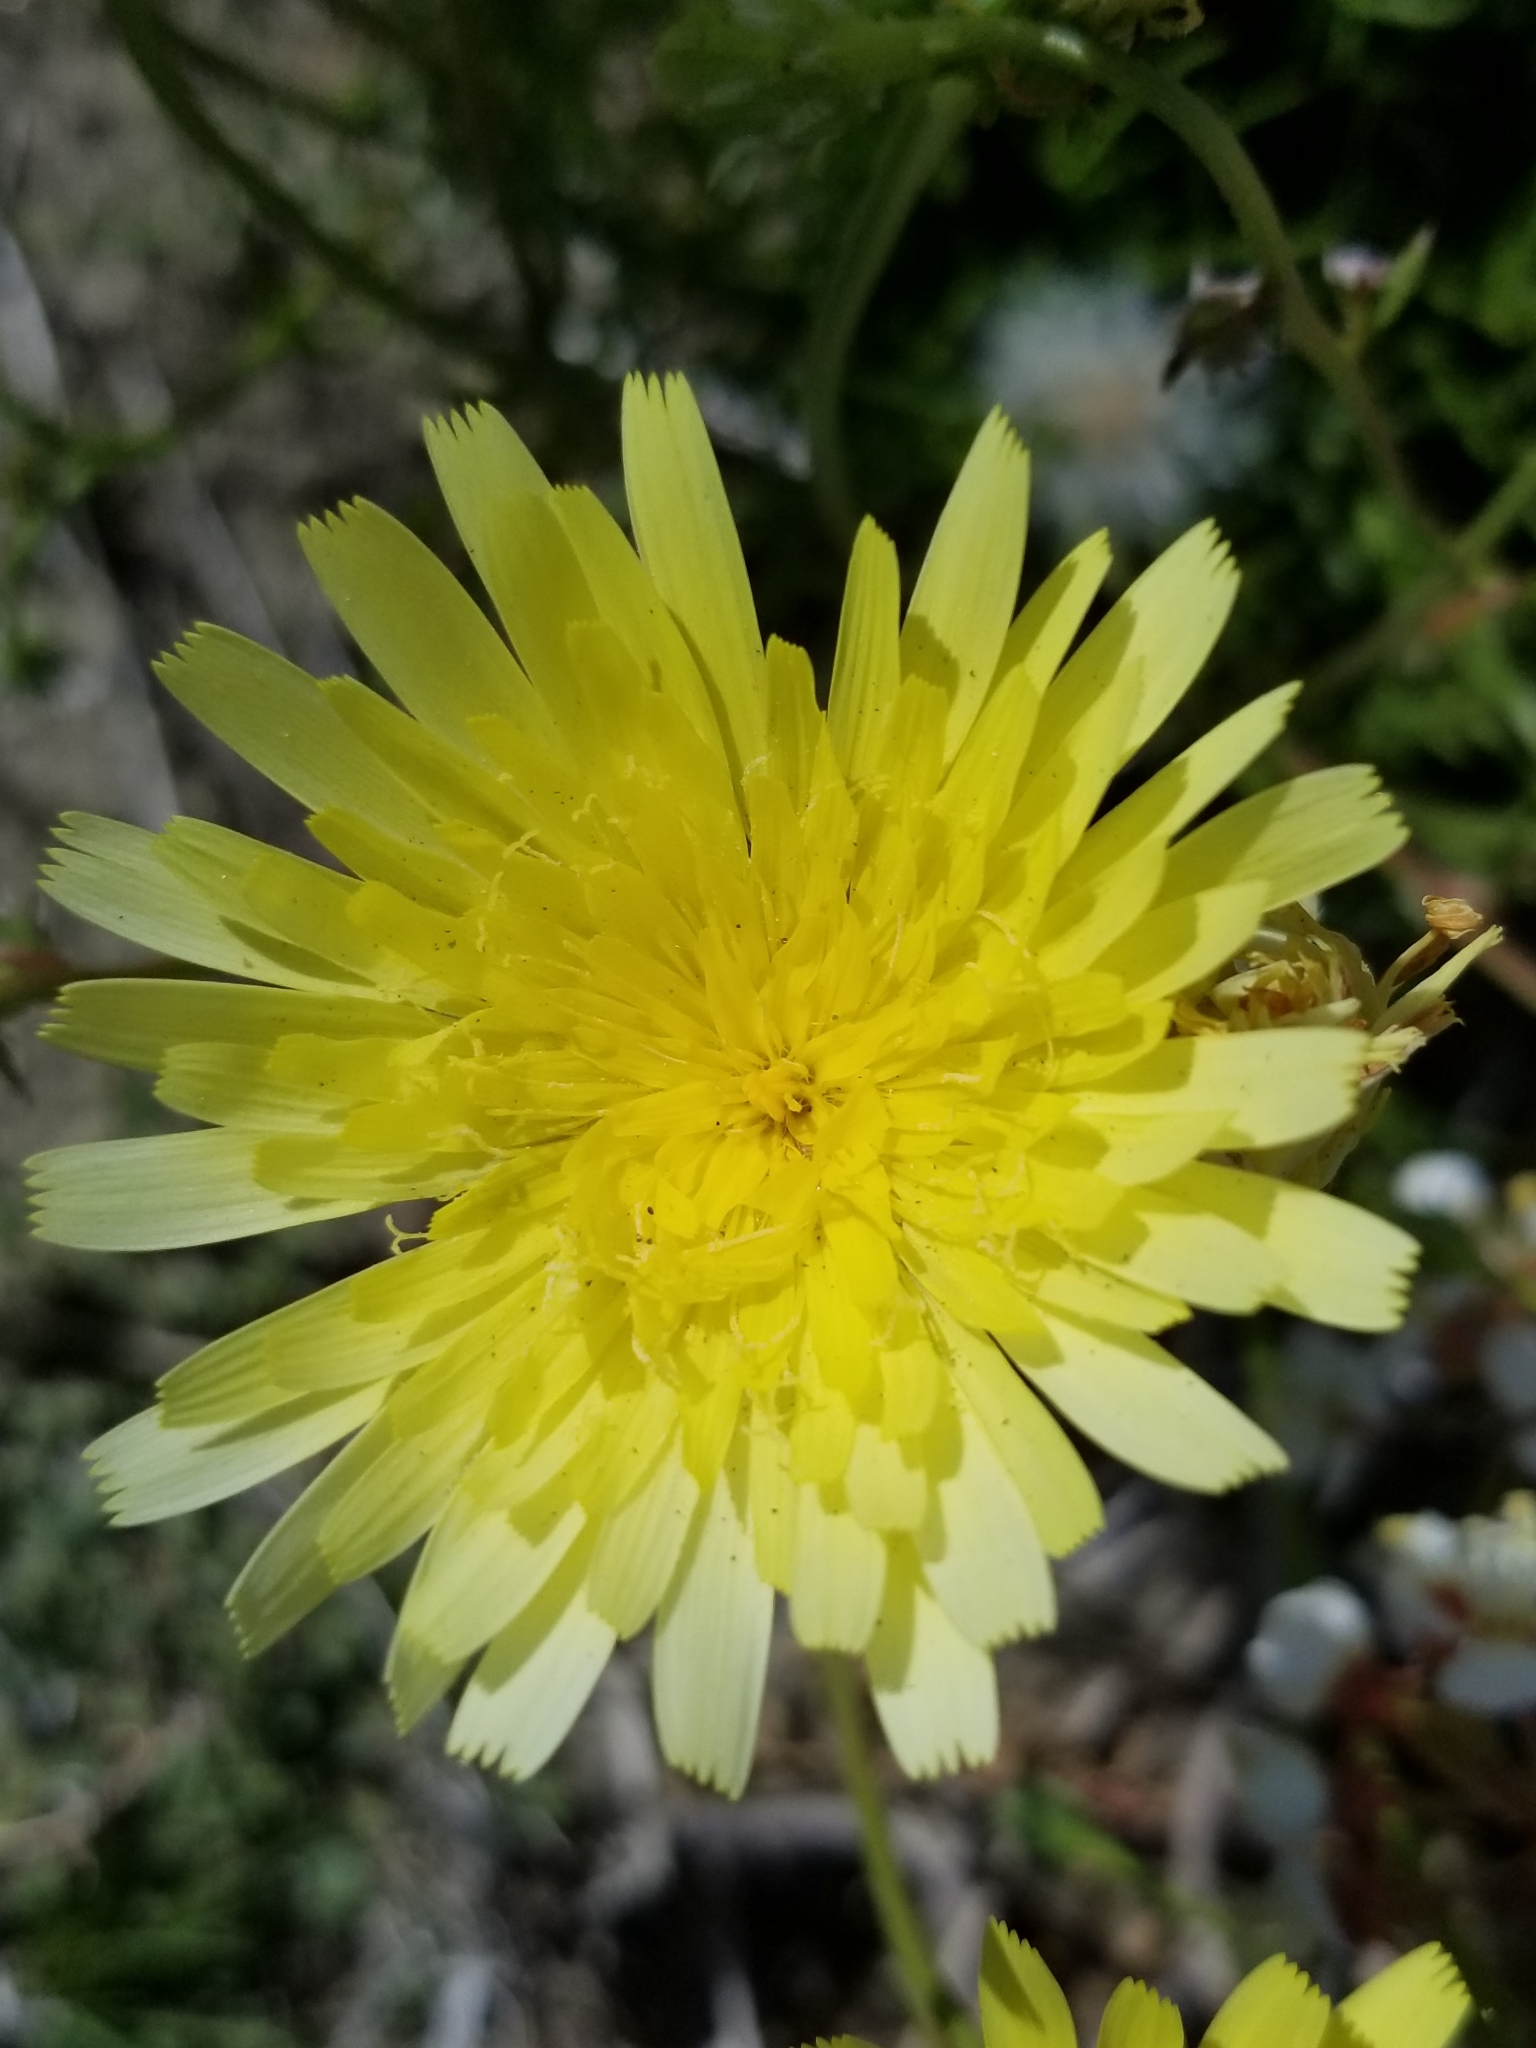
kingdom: Plantae
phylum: Tracheophyta
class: Magnoliopsida
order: Asterales
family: Asteraceae
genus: Malacothrix
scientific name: Malacothrix glabrata
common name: Smooth desert-dandelion
